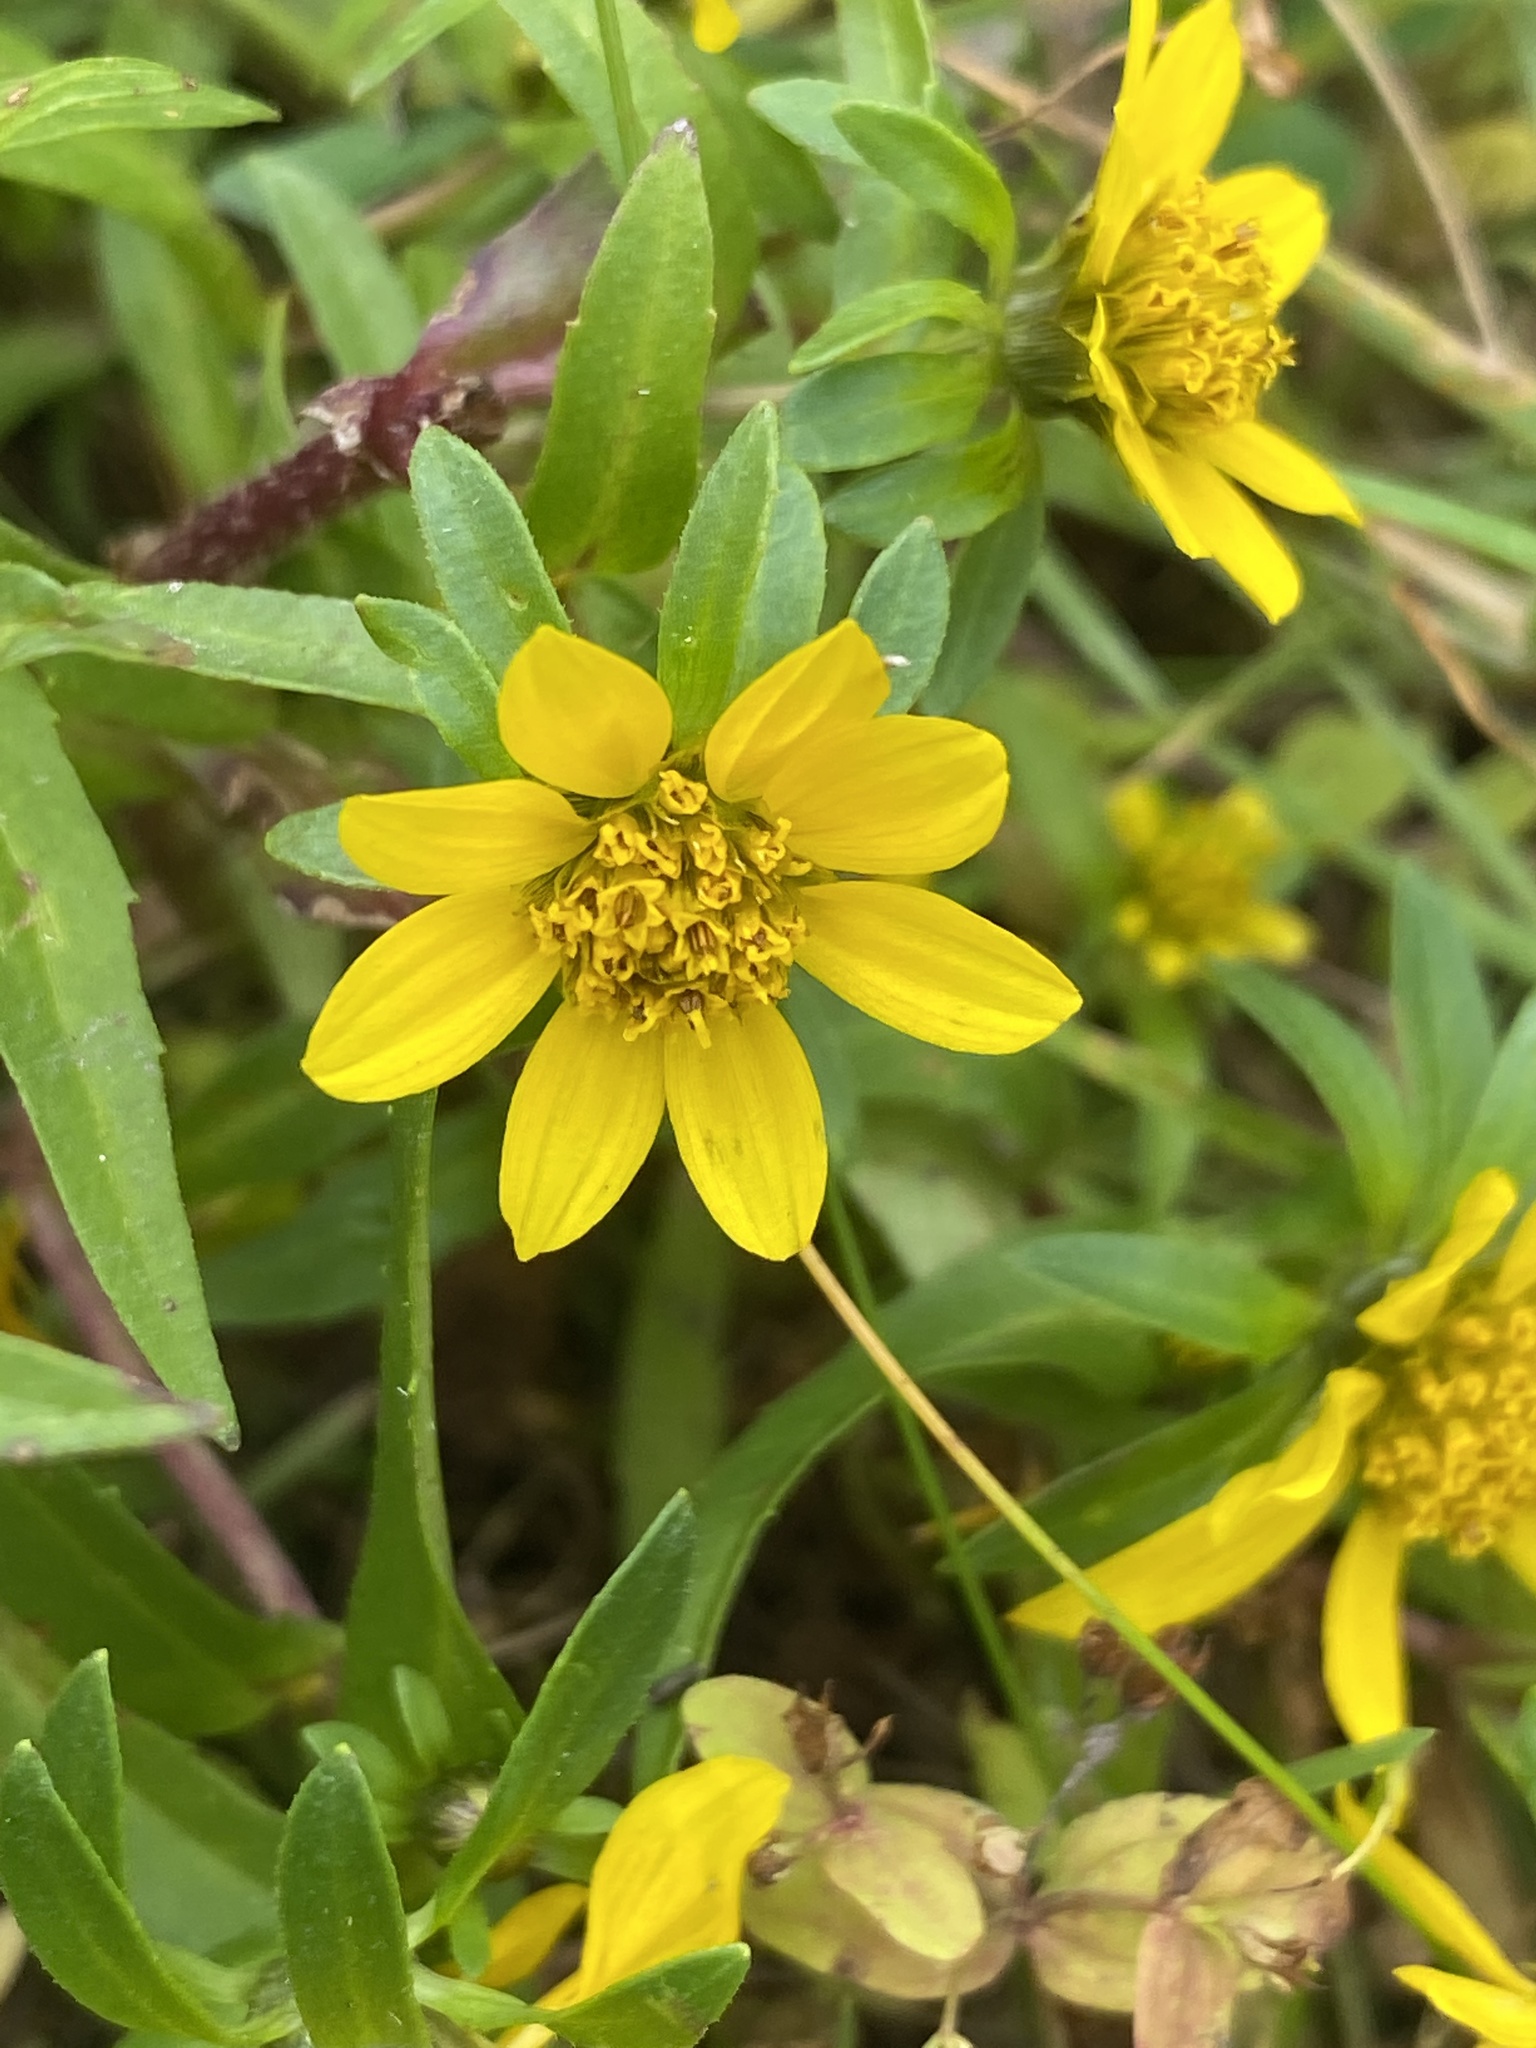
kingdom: Plantae
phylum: Tracheophyta
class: Magnoliopsida
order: Asterales
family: Asteraceae
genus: Bidens
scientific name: Bidens cernua
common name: Nodding bur-marigold
